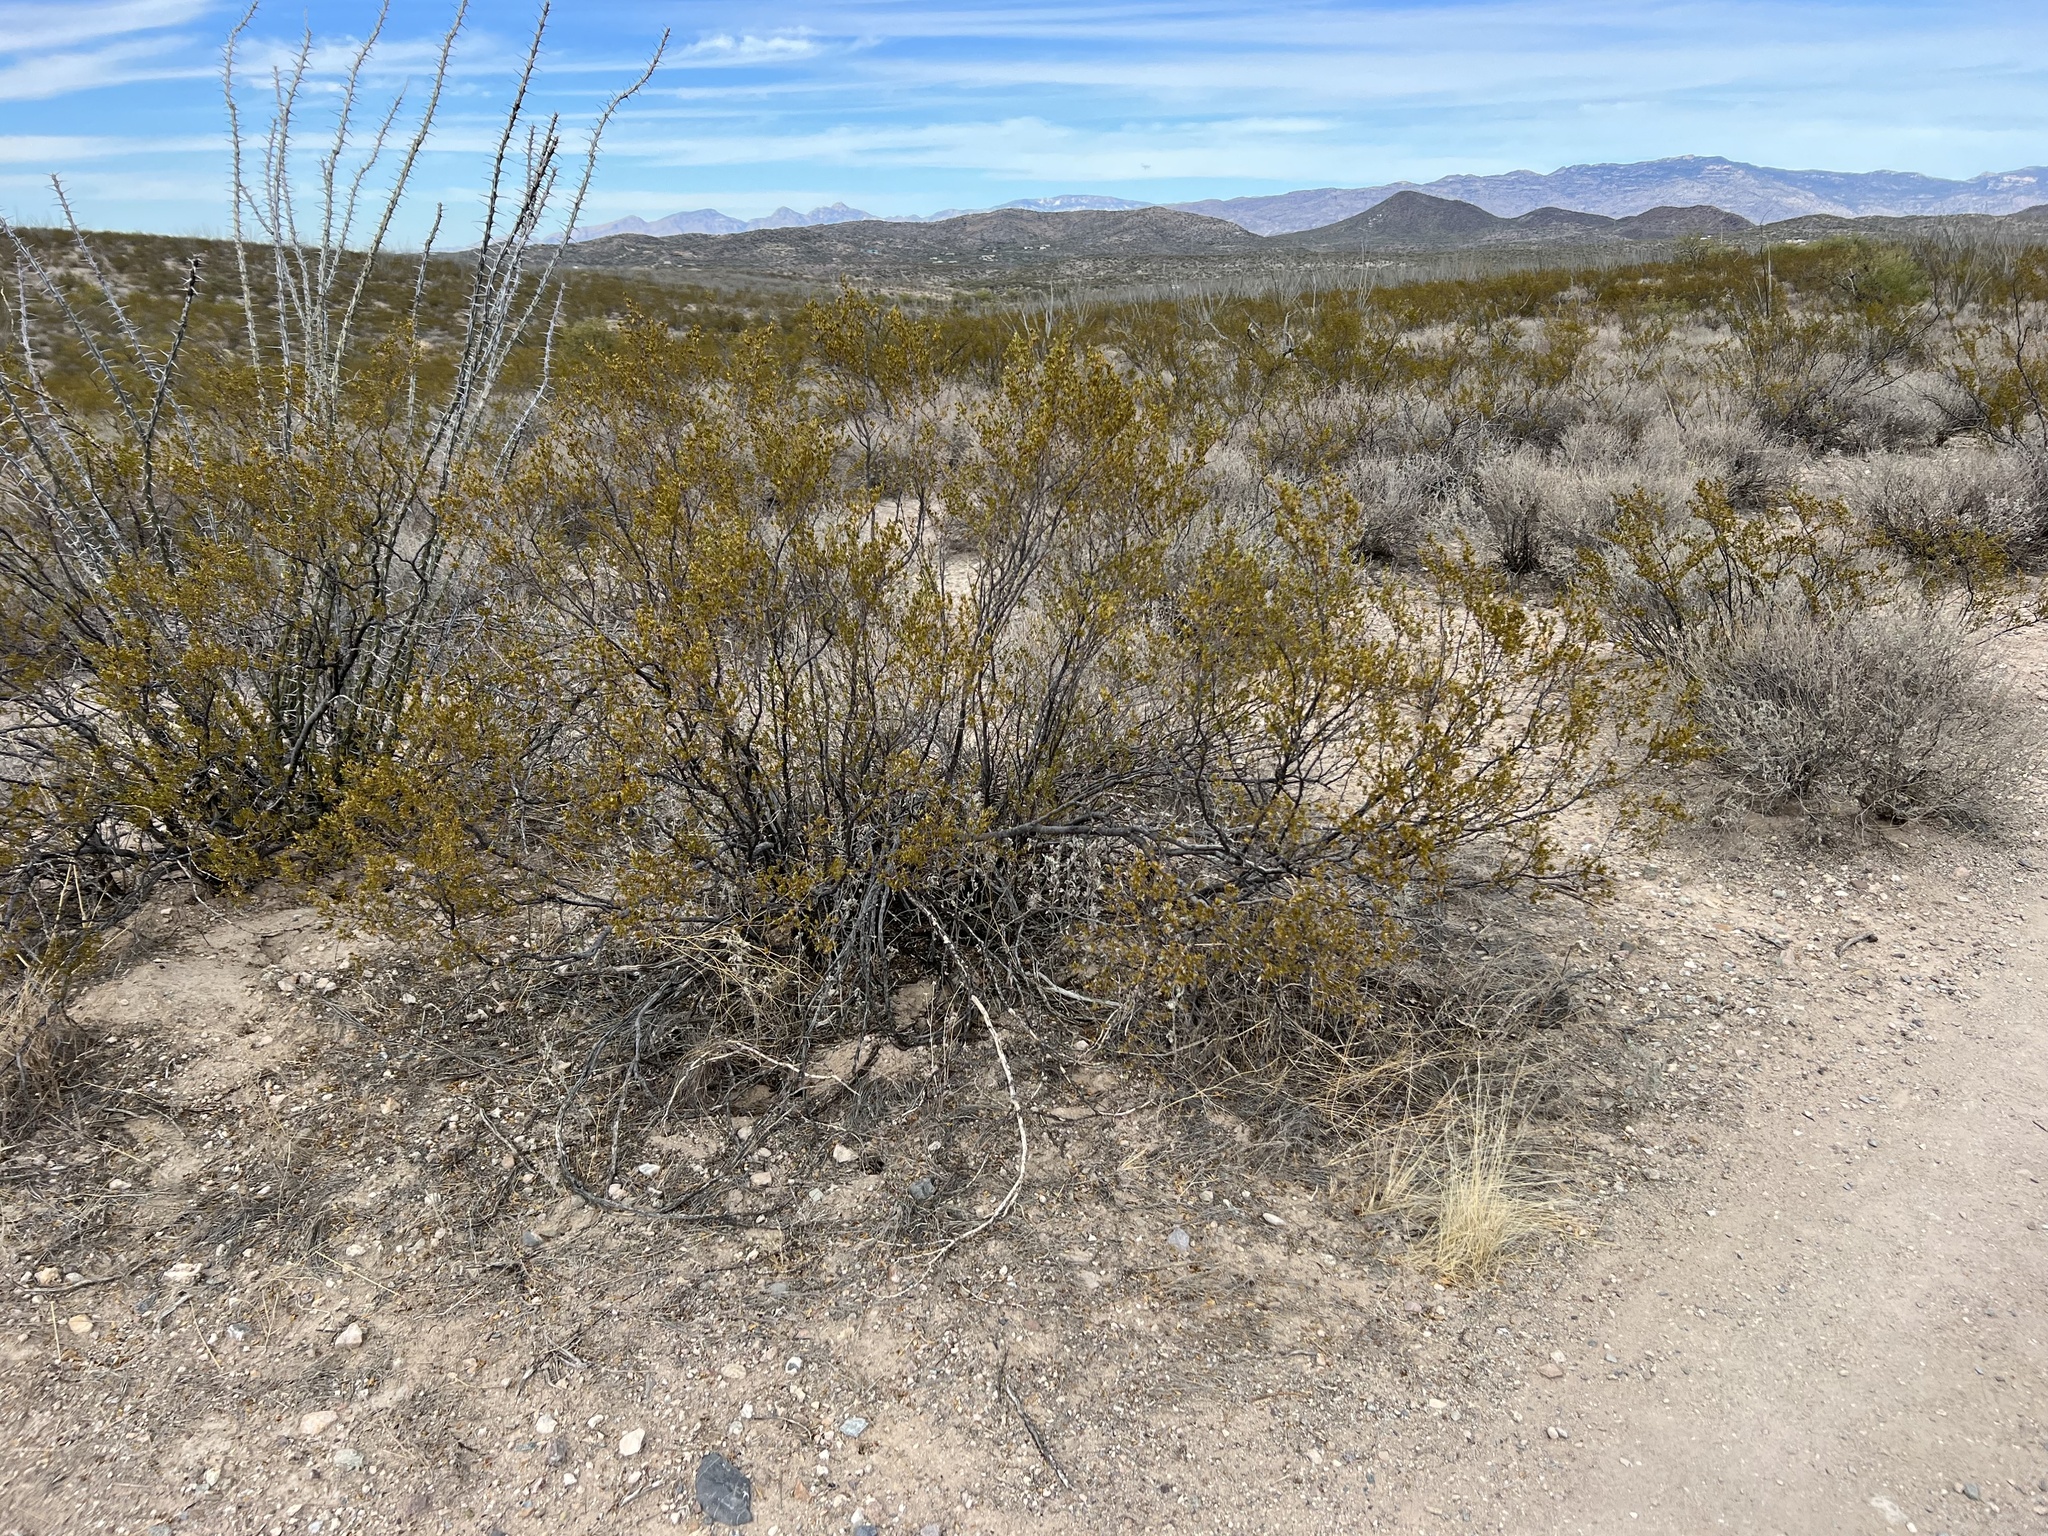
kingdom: Plantae
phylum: Tracheophyta
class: Magnoliopsida
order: Zygophyllales
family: Zygophyllaceae
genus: Larrea
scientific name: Larrea tridentata
